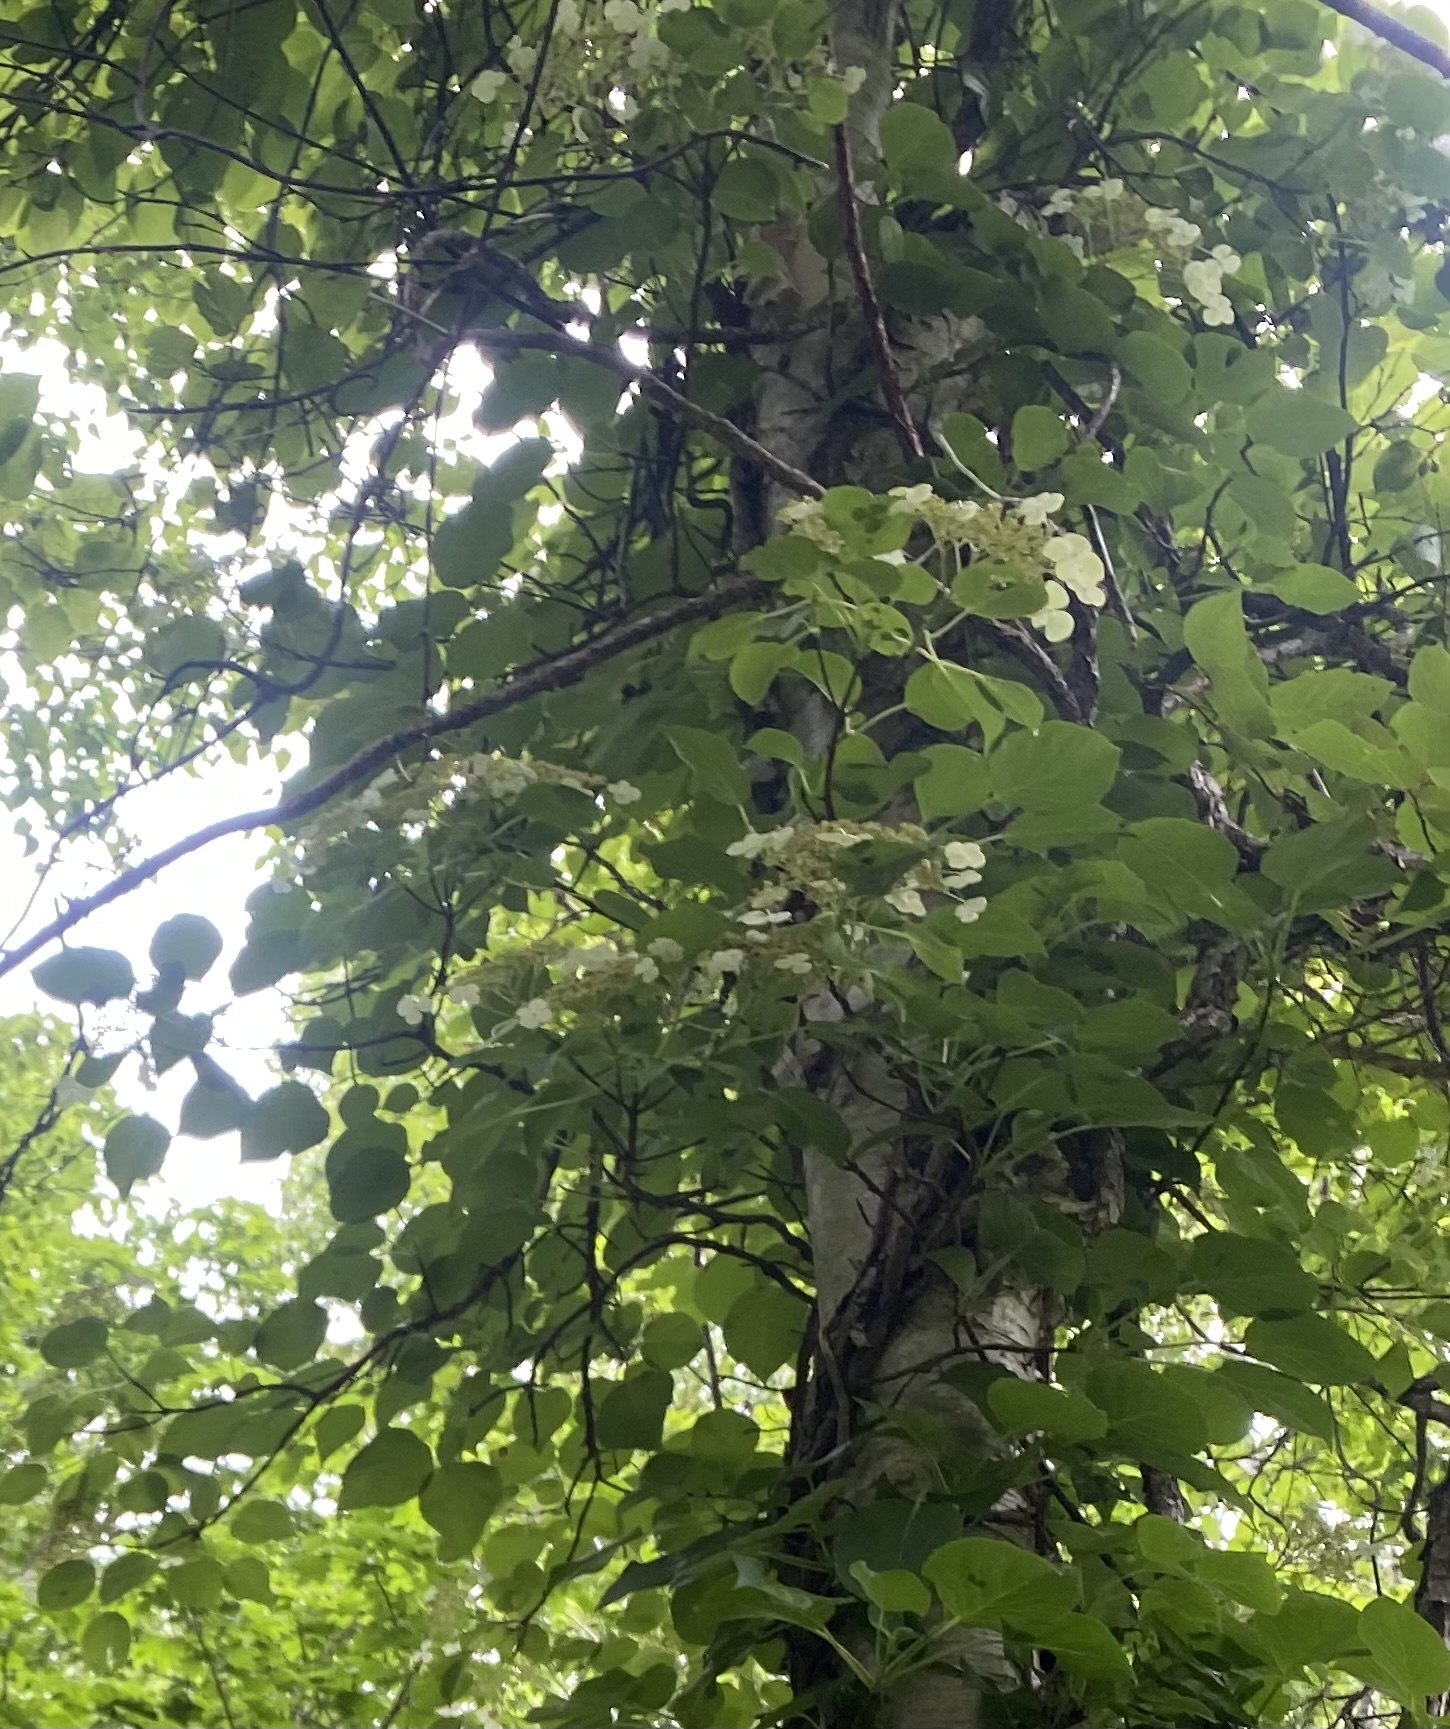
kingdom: Plantae
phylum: Tracheophyta
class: Magnoliopsida
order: Cornales
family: Hydrangeaceae
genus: Hydrangea
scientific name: Hydrangea petiolaris
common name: Japanese climbing hydrangea
